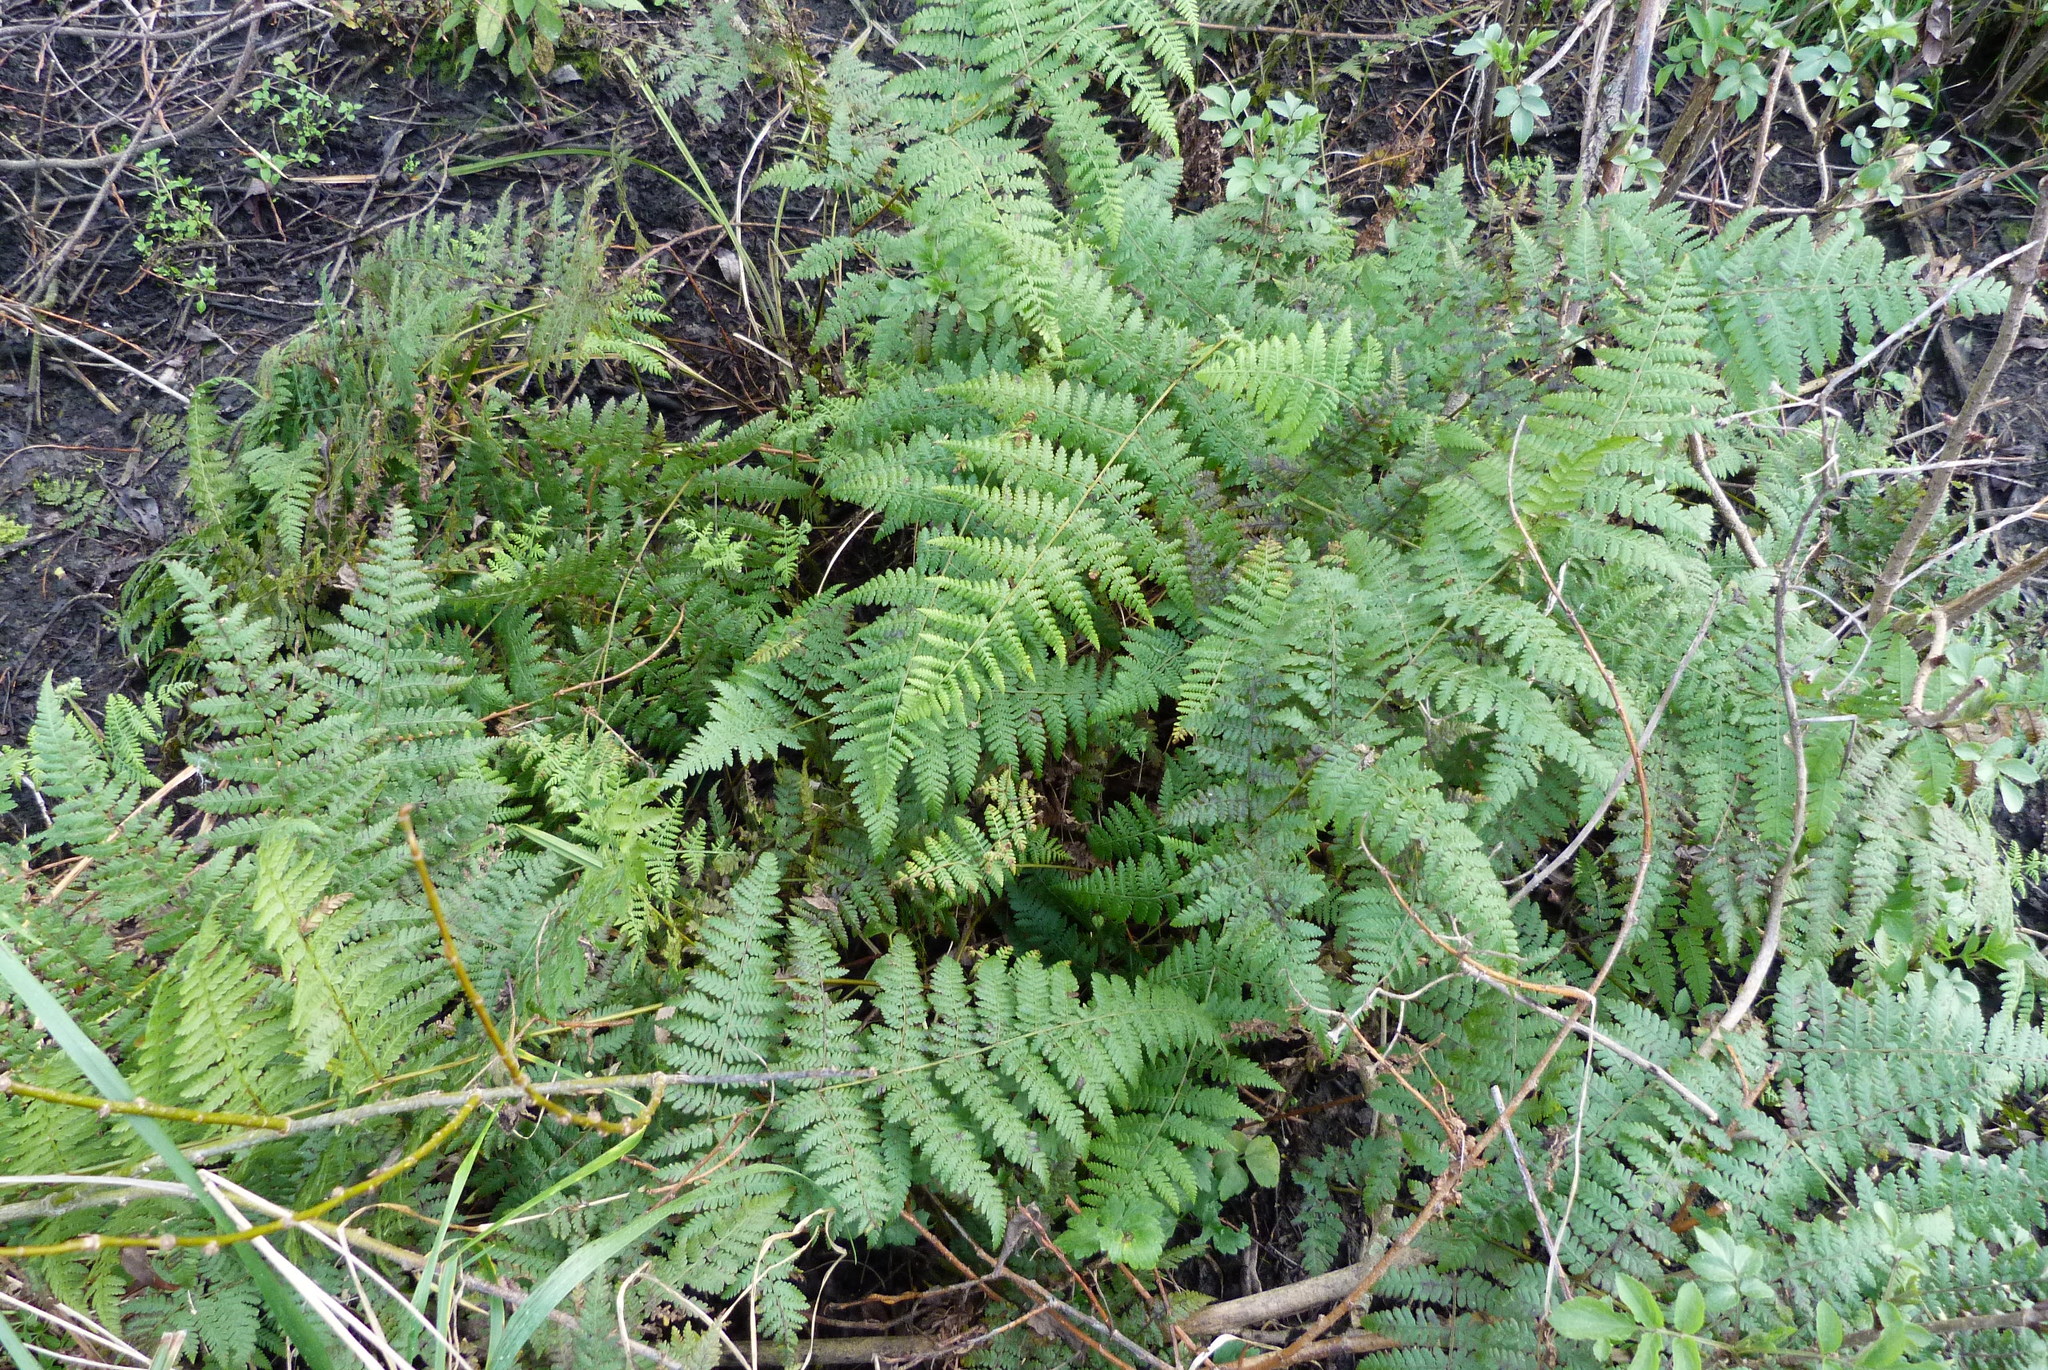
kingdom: Plantae
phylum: Tracheophyta
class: Polypodiopsida
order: Polypodiales
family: Dennstaedtiaceae
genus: Hypolepis
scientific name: Hypolepis ambigua
